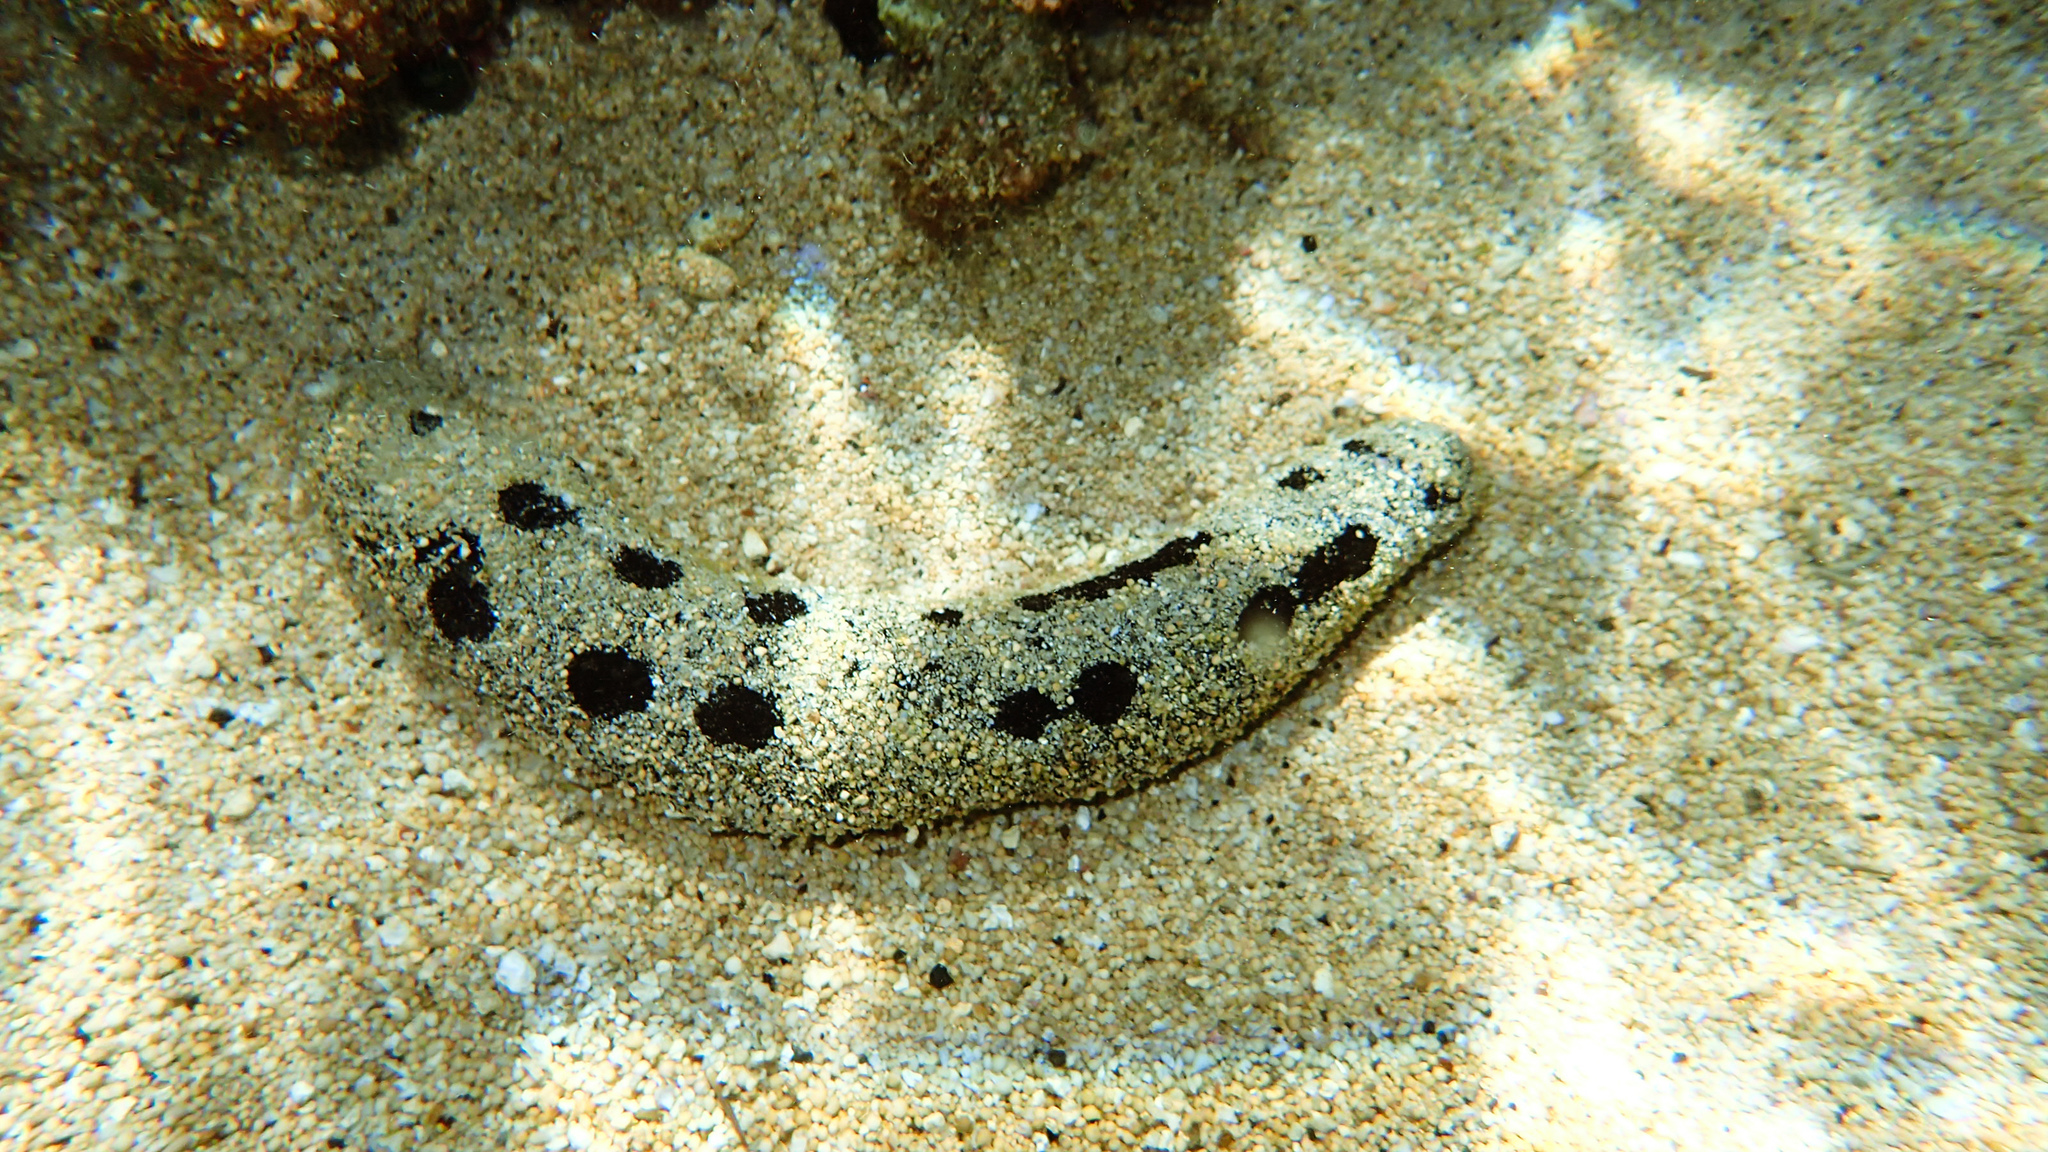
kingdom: Animalia
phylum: Echinodermata
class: Holothuroidea
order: Holothuriida
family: Holothuriidae
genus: Holothuria
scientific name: Holothuria atra
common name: Lollyfish
